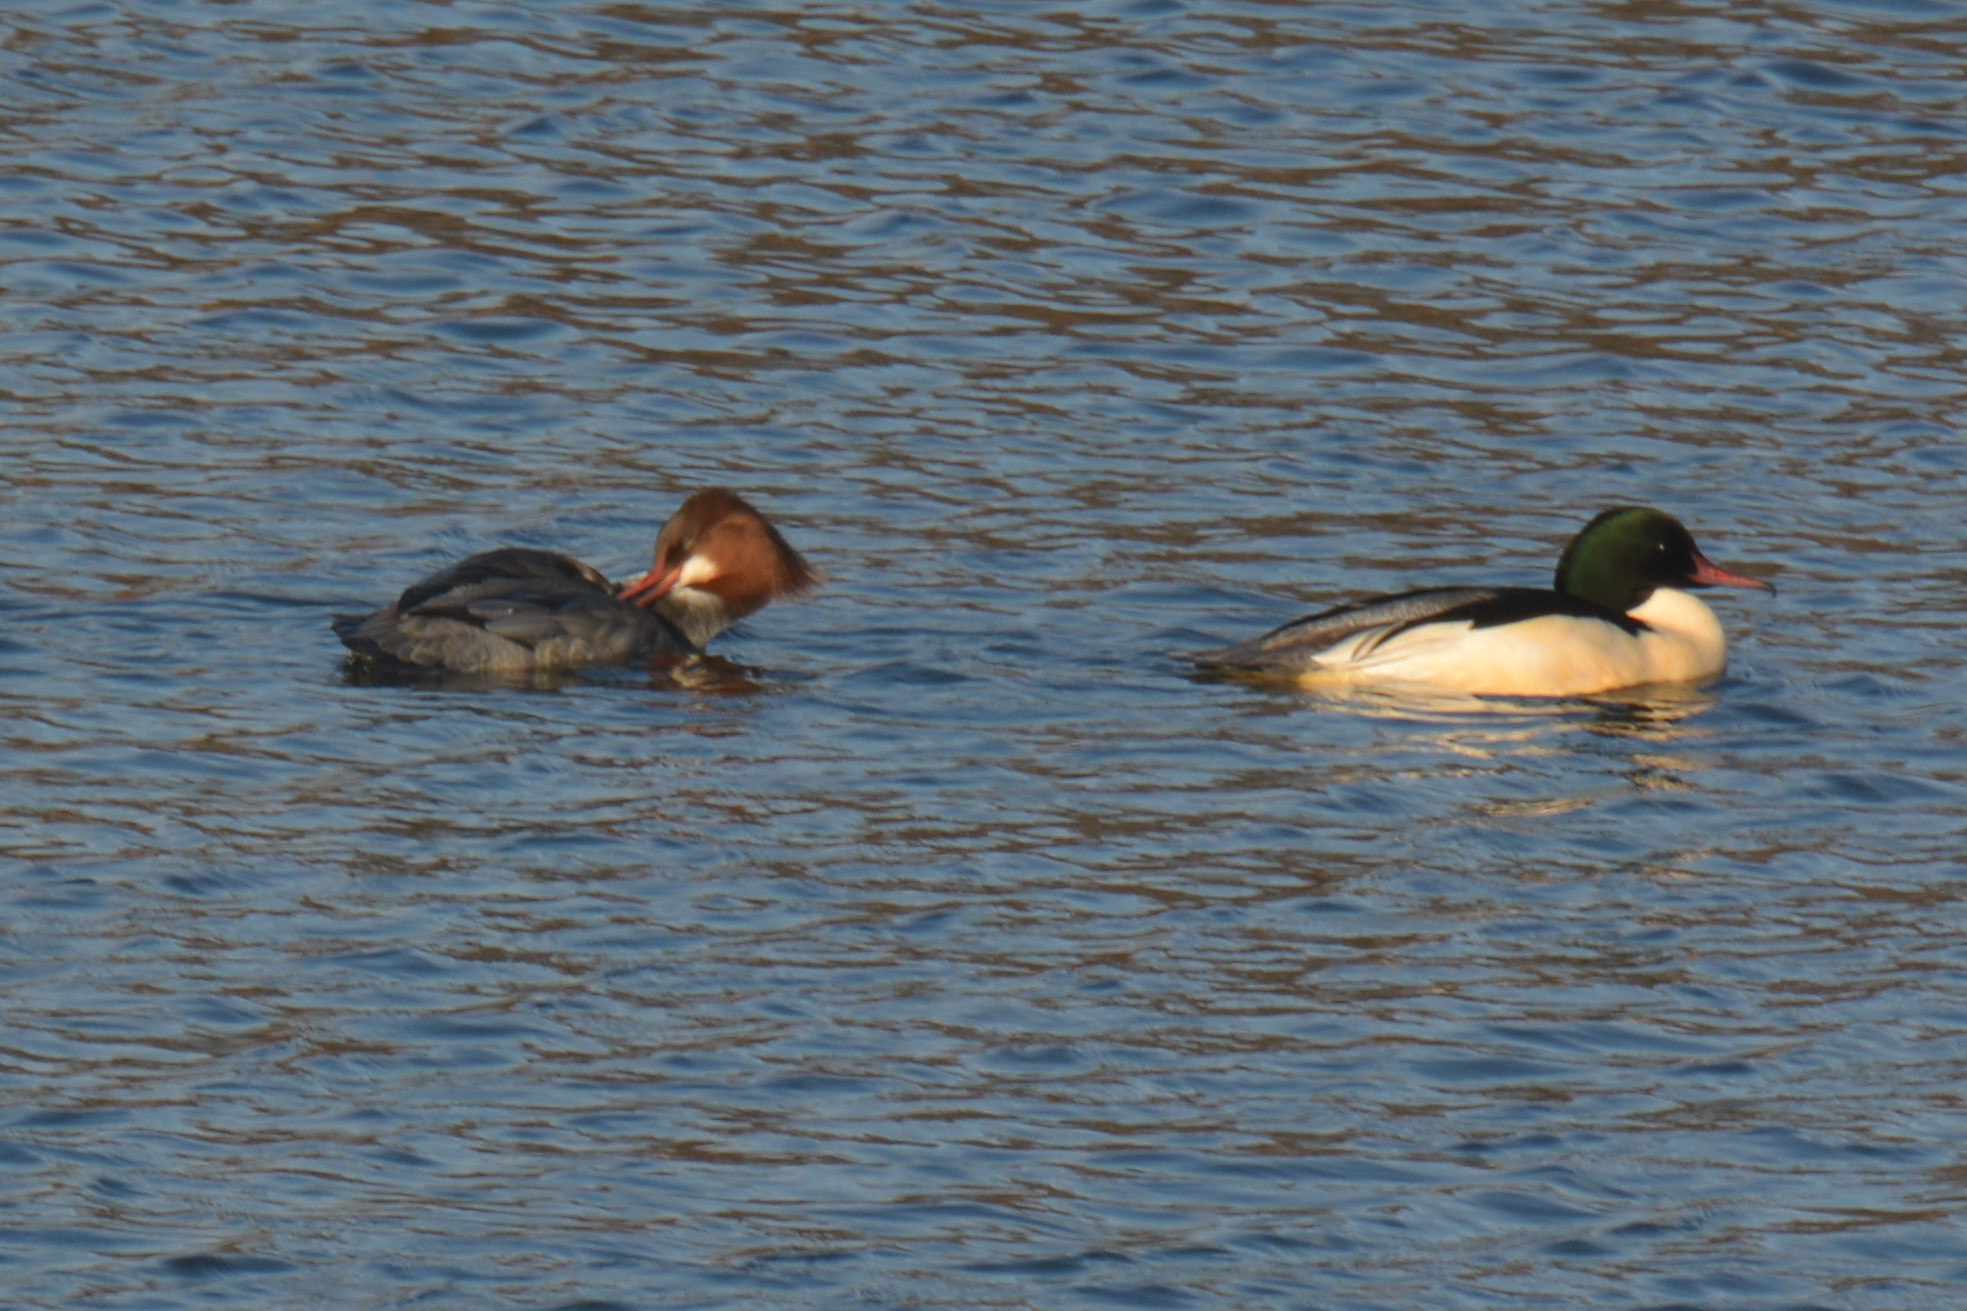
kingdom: Animalia
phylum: Chordata
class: Aves
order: Anseriformes
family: Anatidae
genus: Mergus
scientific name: Mergus merganser
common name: Common merganser
